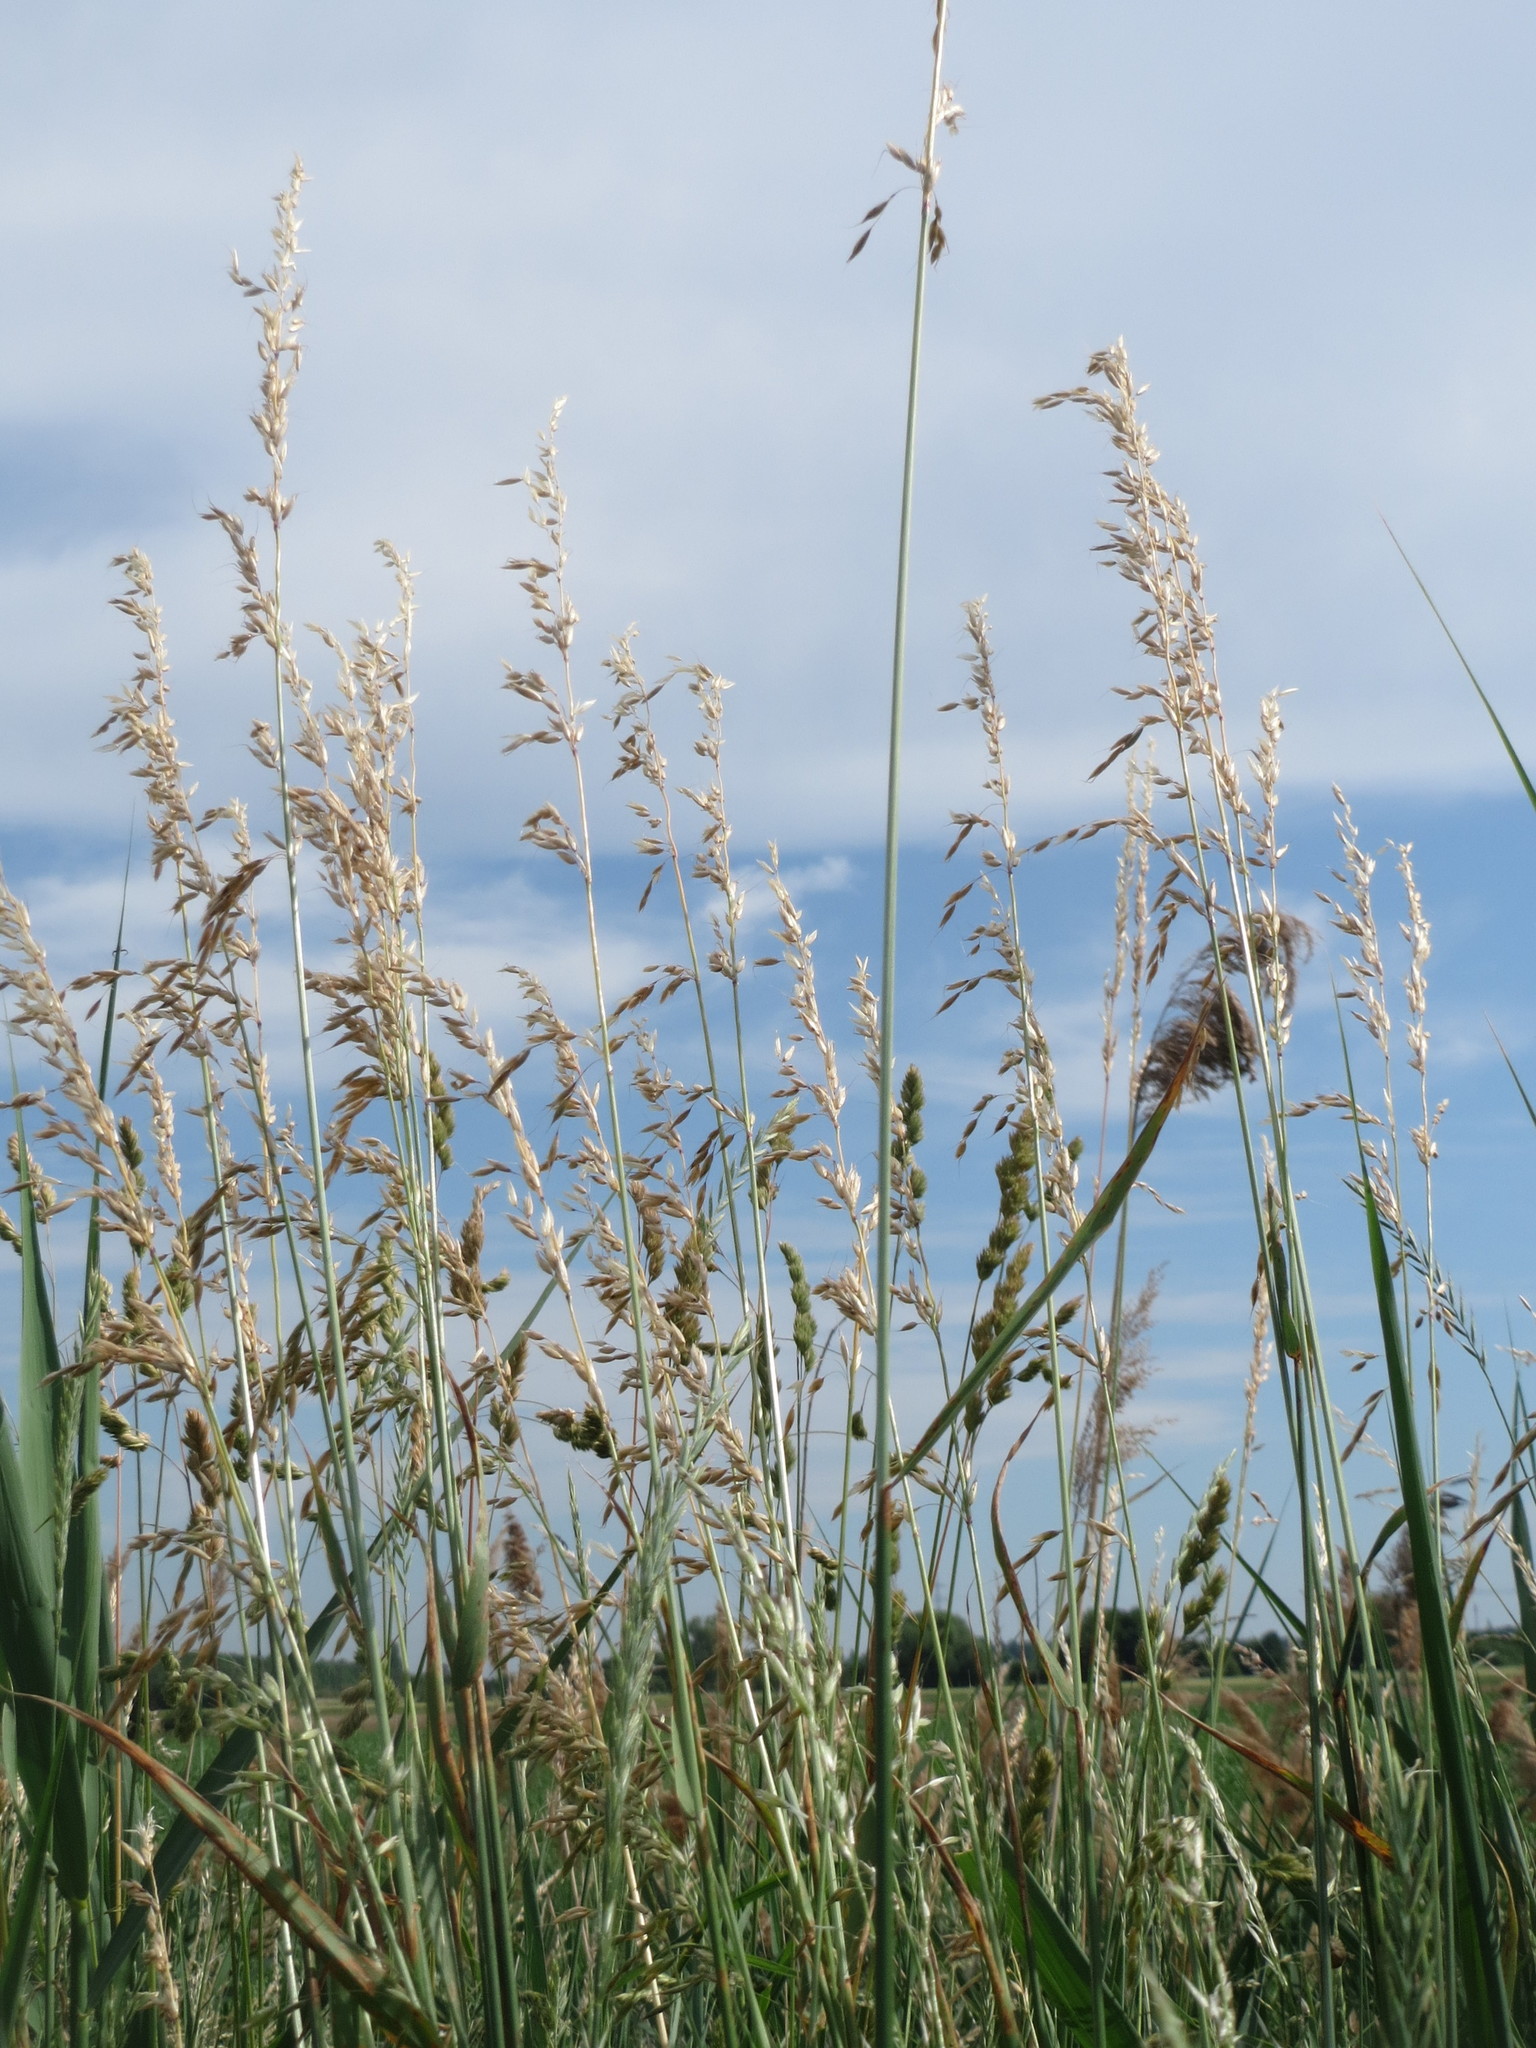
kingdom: Plantae
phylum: Tracheophyta
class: Liliopsida
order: Poales
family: Poaceae
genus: Arrhenatherum
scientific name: Arrhenatherum elatius
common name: Tall oatgrass
